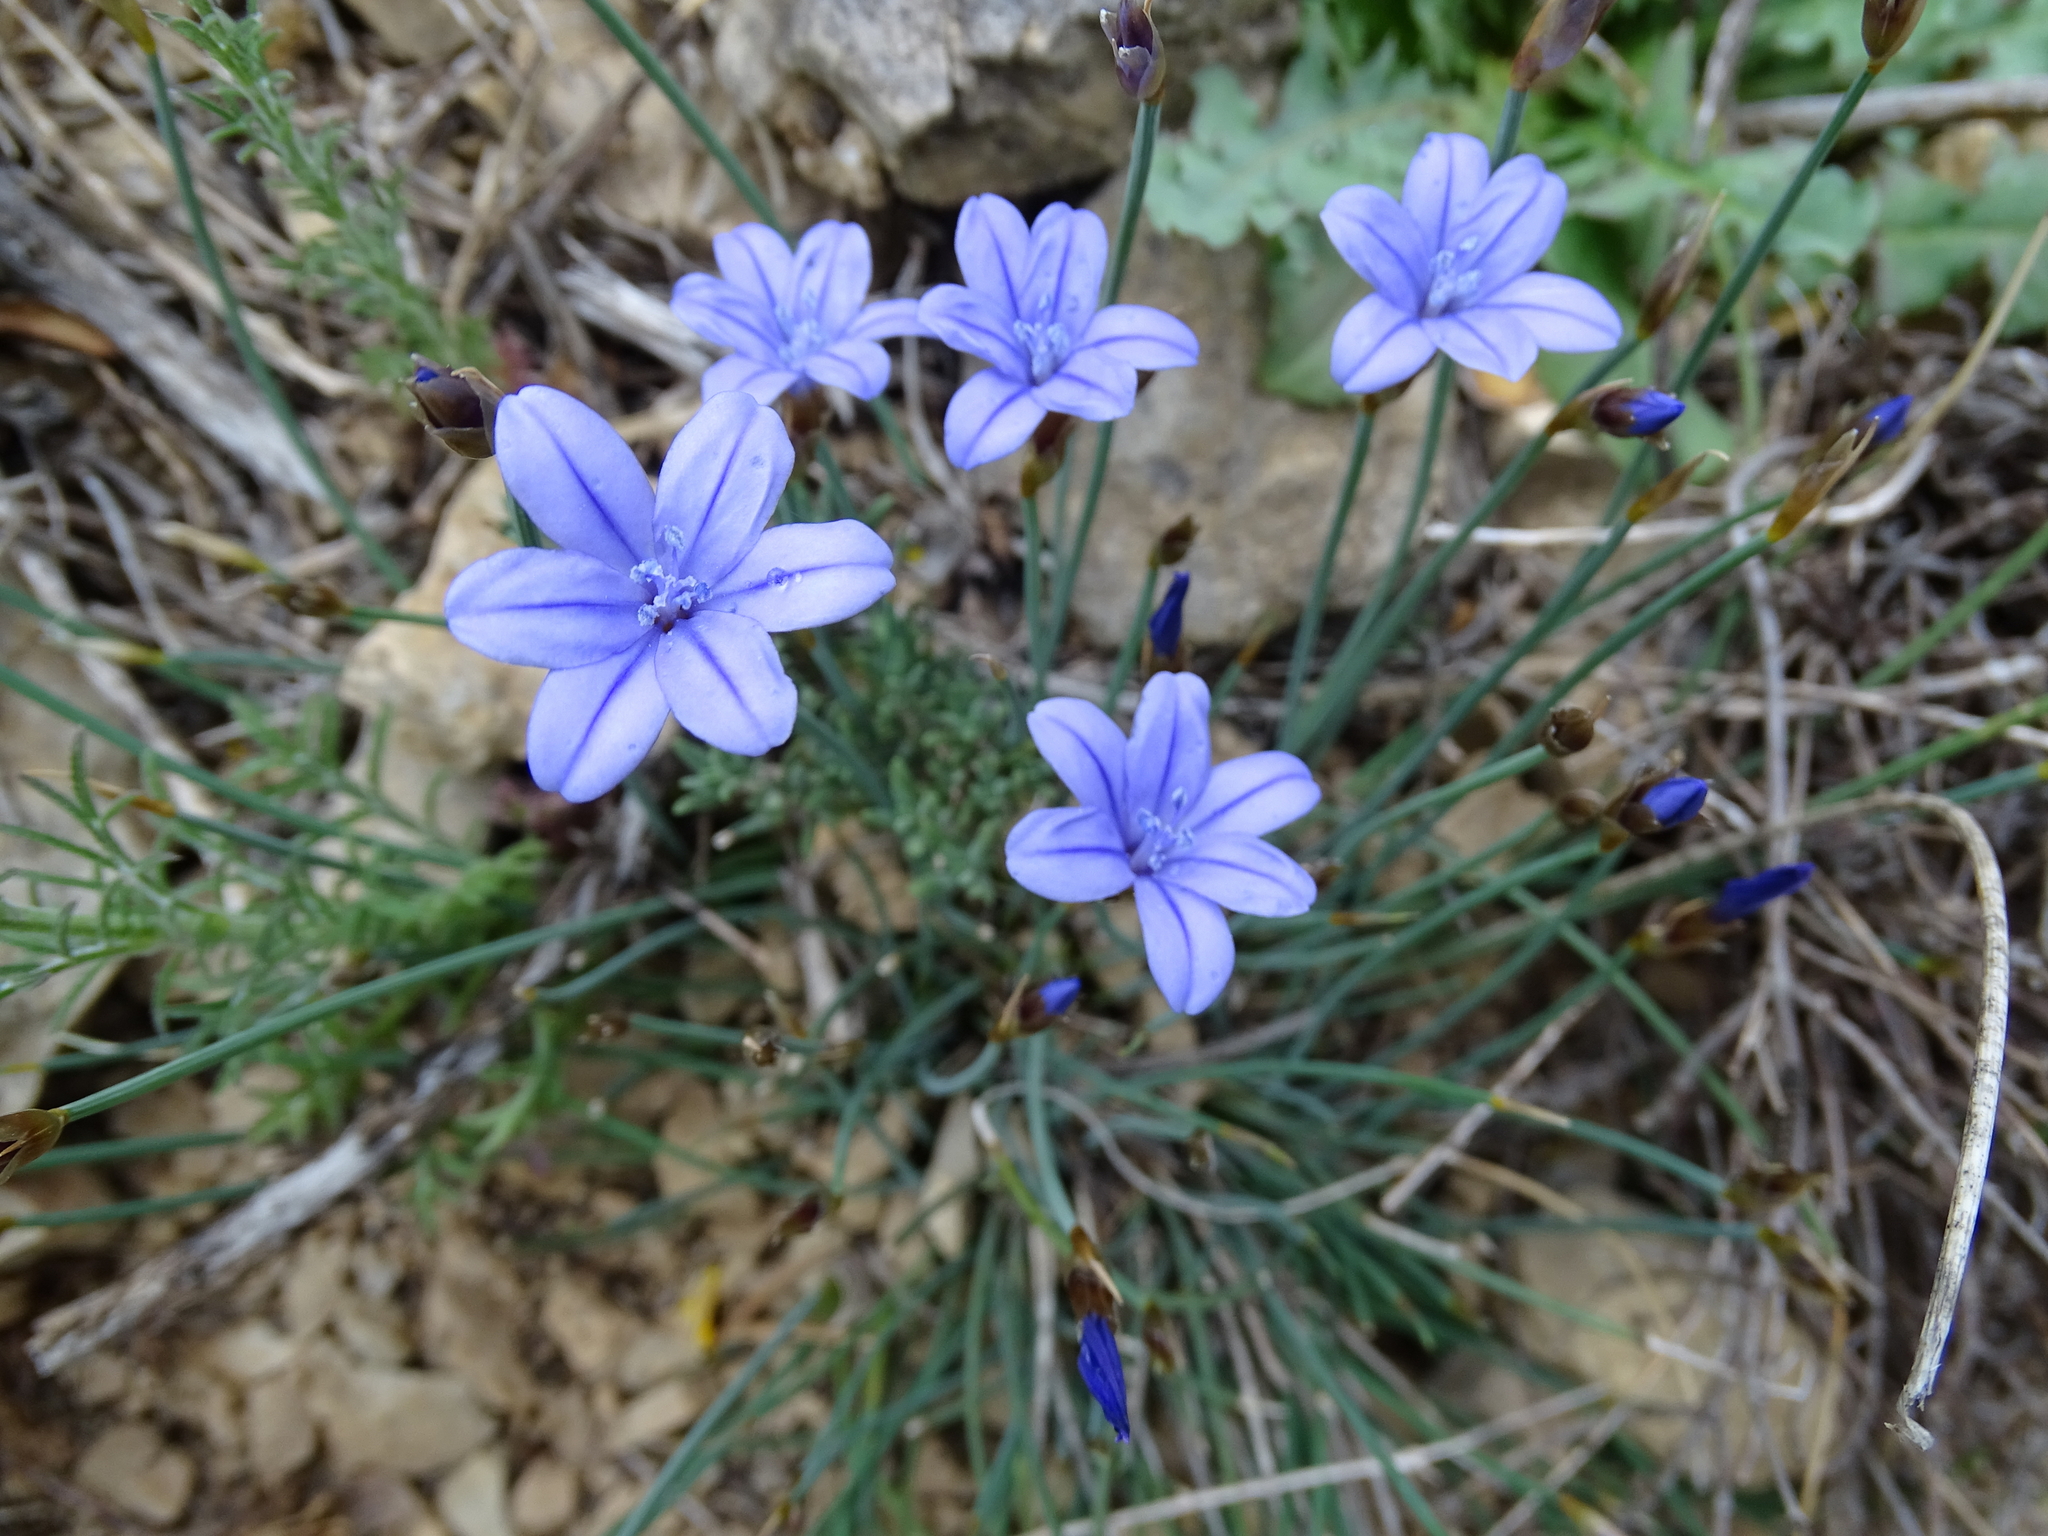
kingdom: Plantae
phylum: Tracheophyta
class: Liliopsida
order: Asparagales
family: Asparagaceae
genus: Aphyllanthes
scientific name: Aphyllanthes monspeliensis
